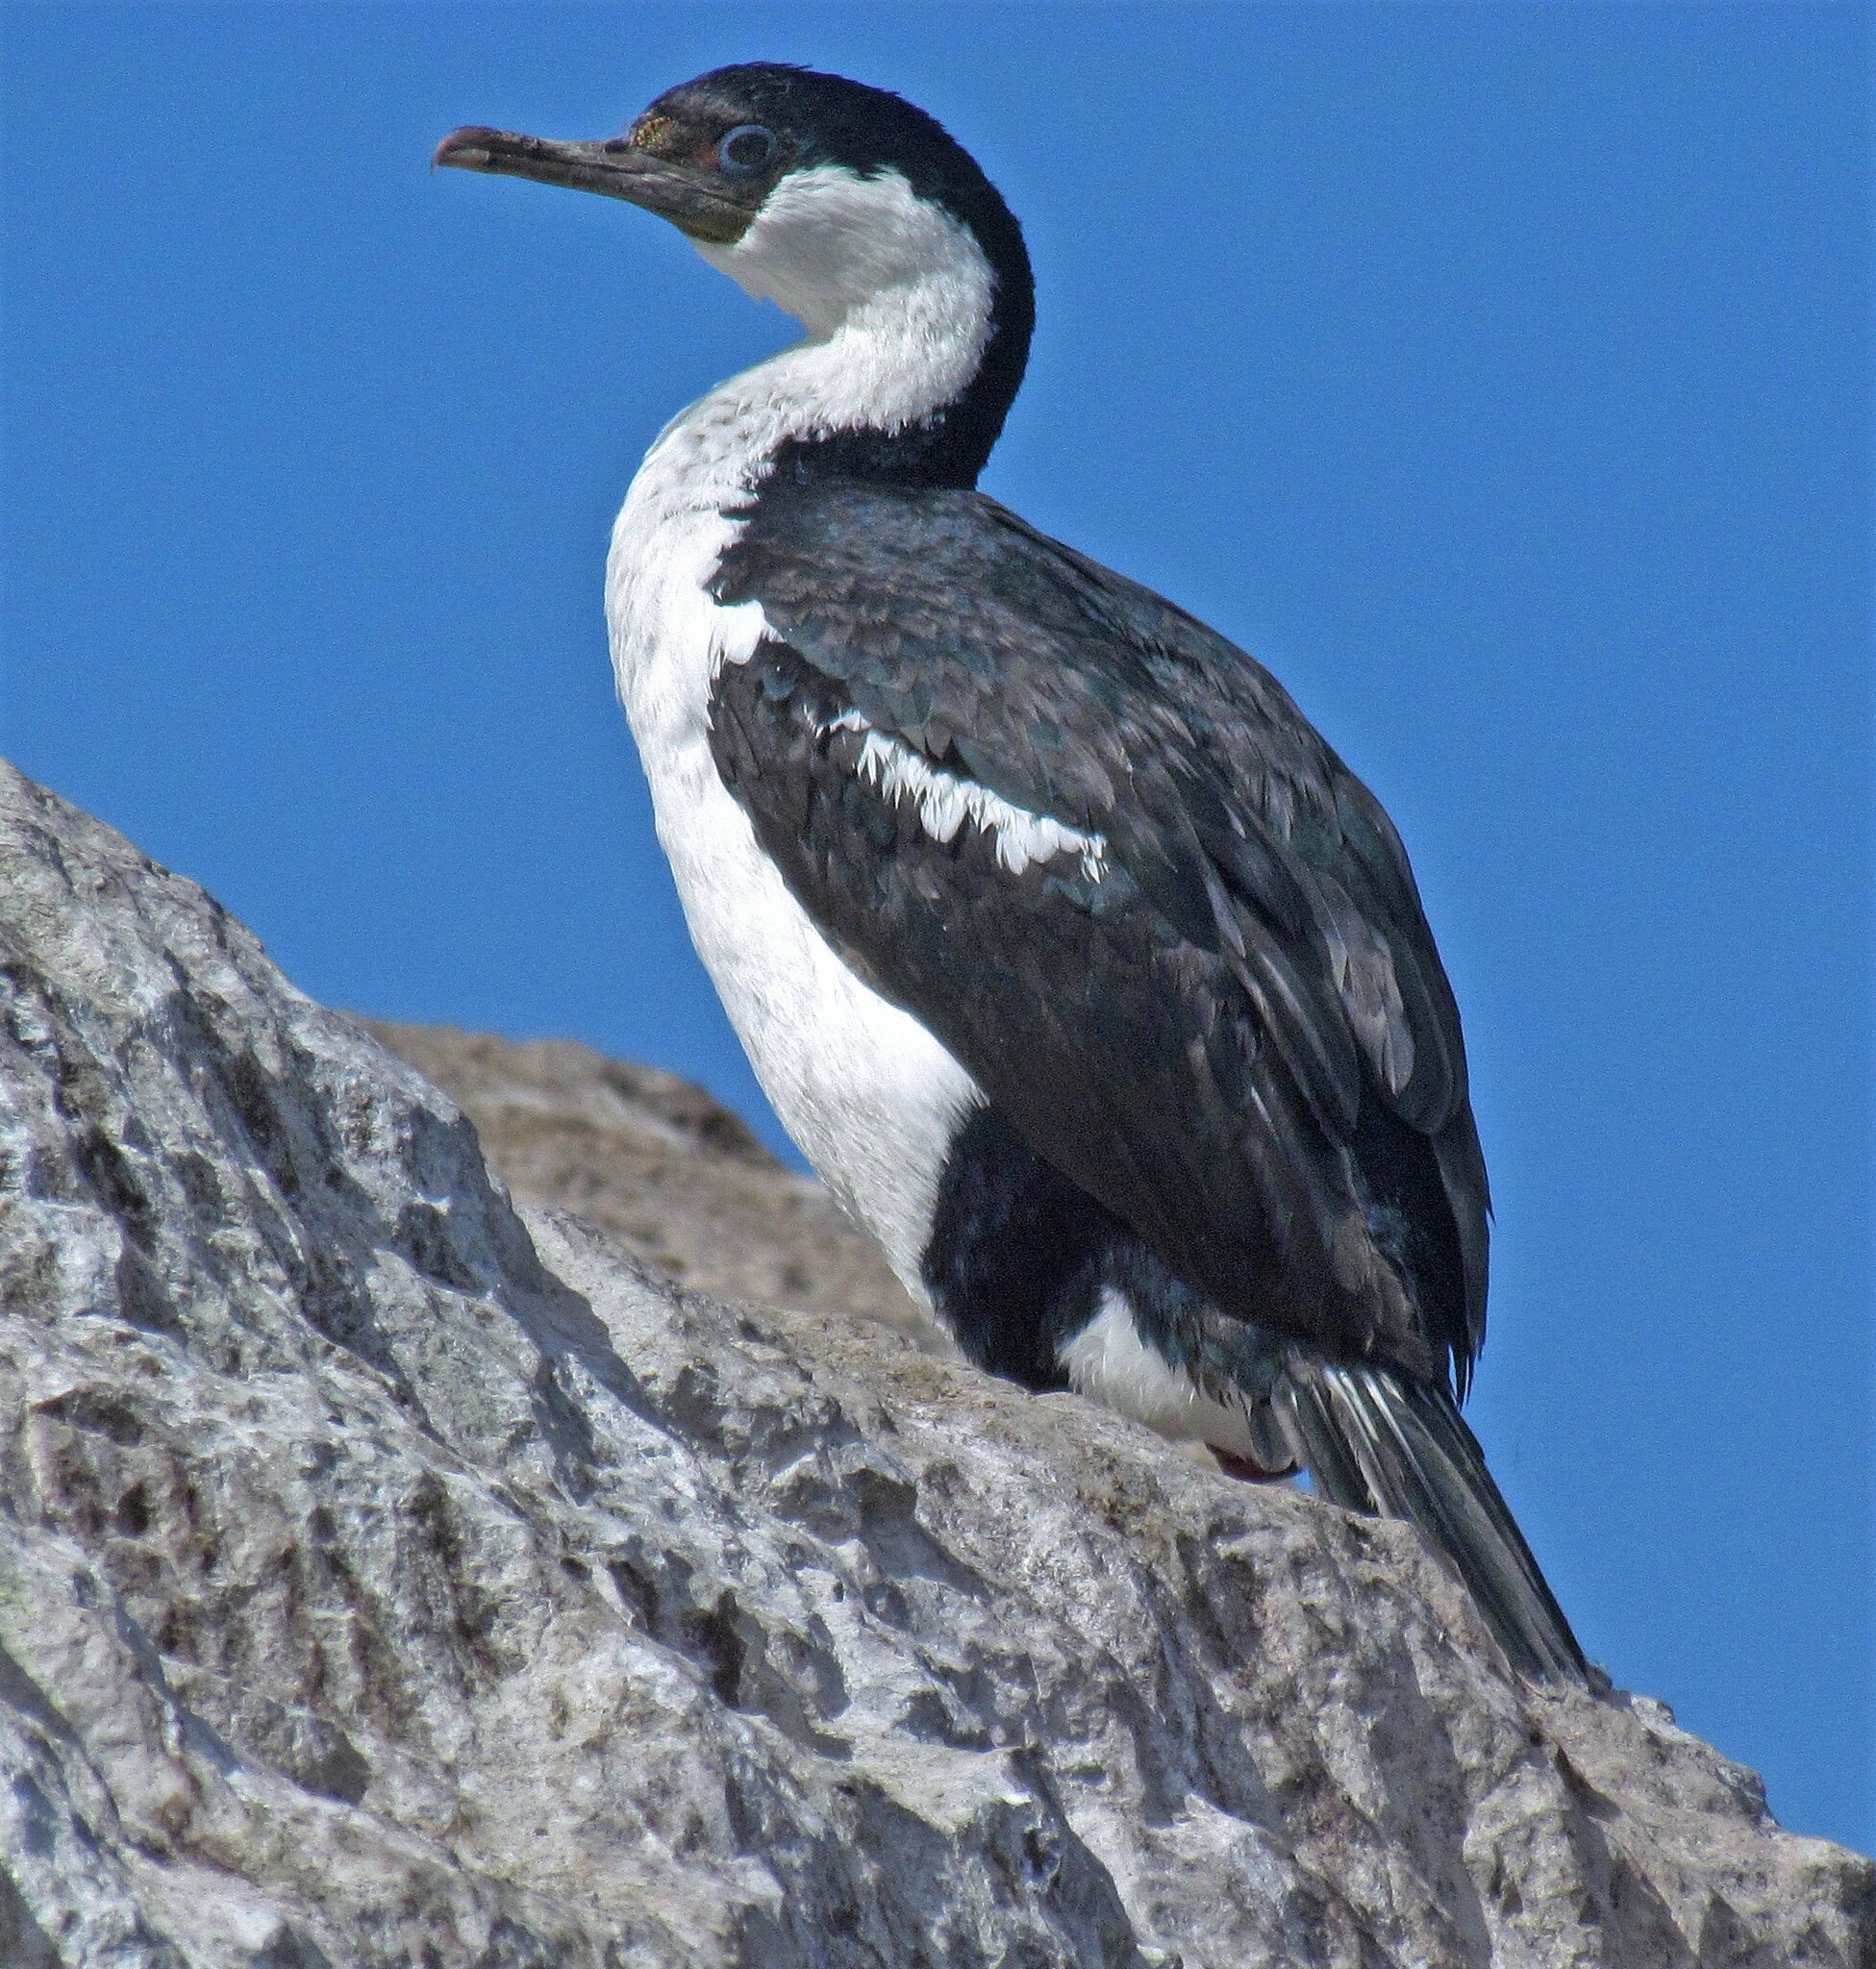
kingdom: Animalia
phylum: Chordata
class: Aves
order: Suliformes
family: Phalacrocoracidae
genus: Leucocarbo
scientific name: Leucocarbo atriceps
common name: Imperial shag
